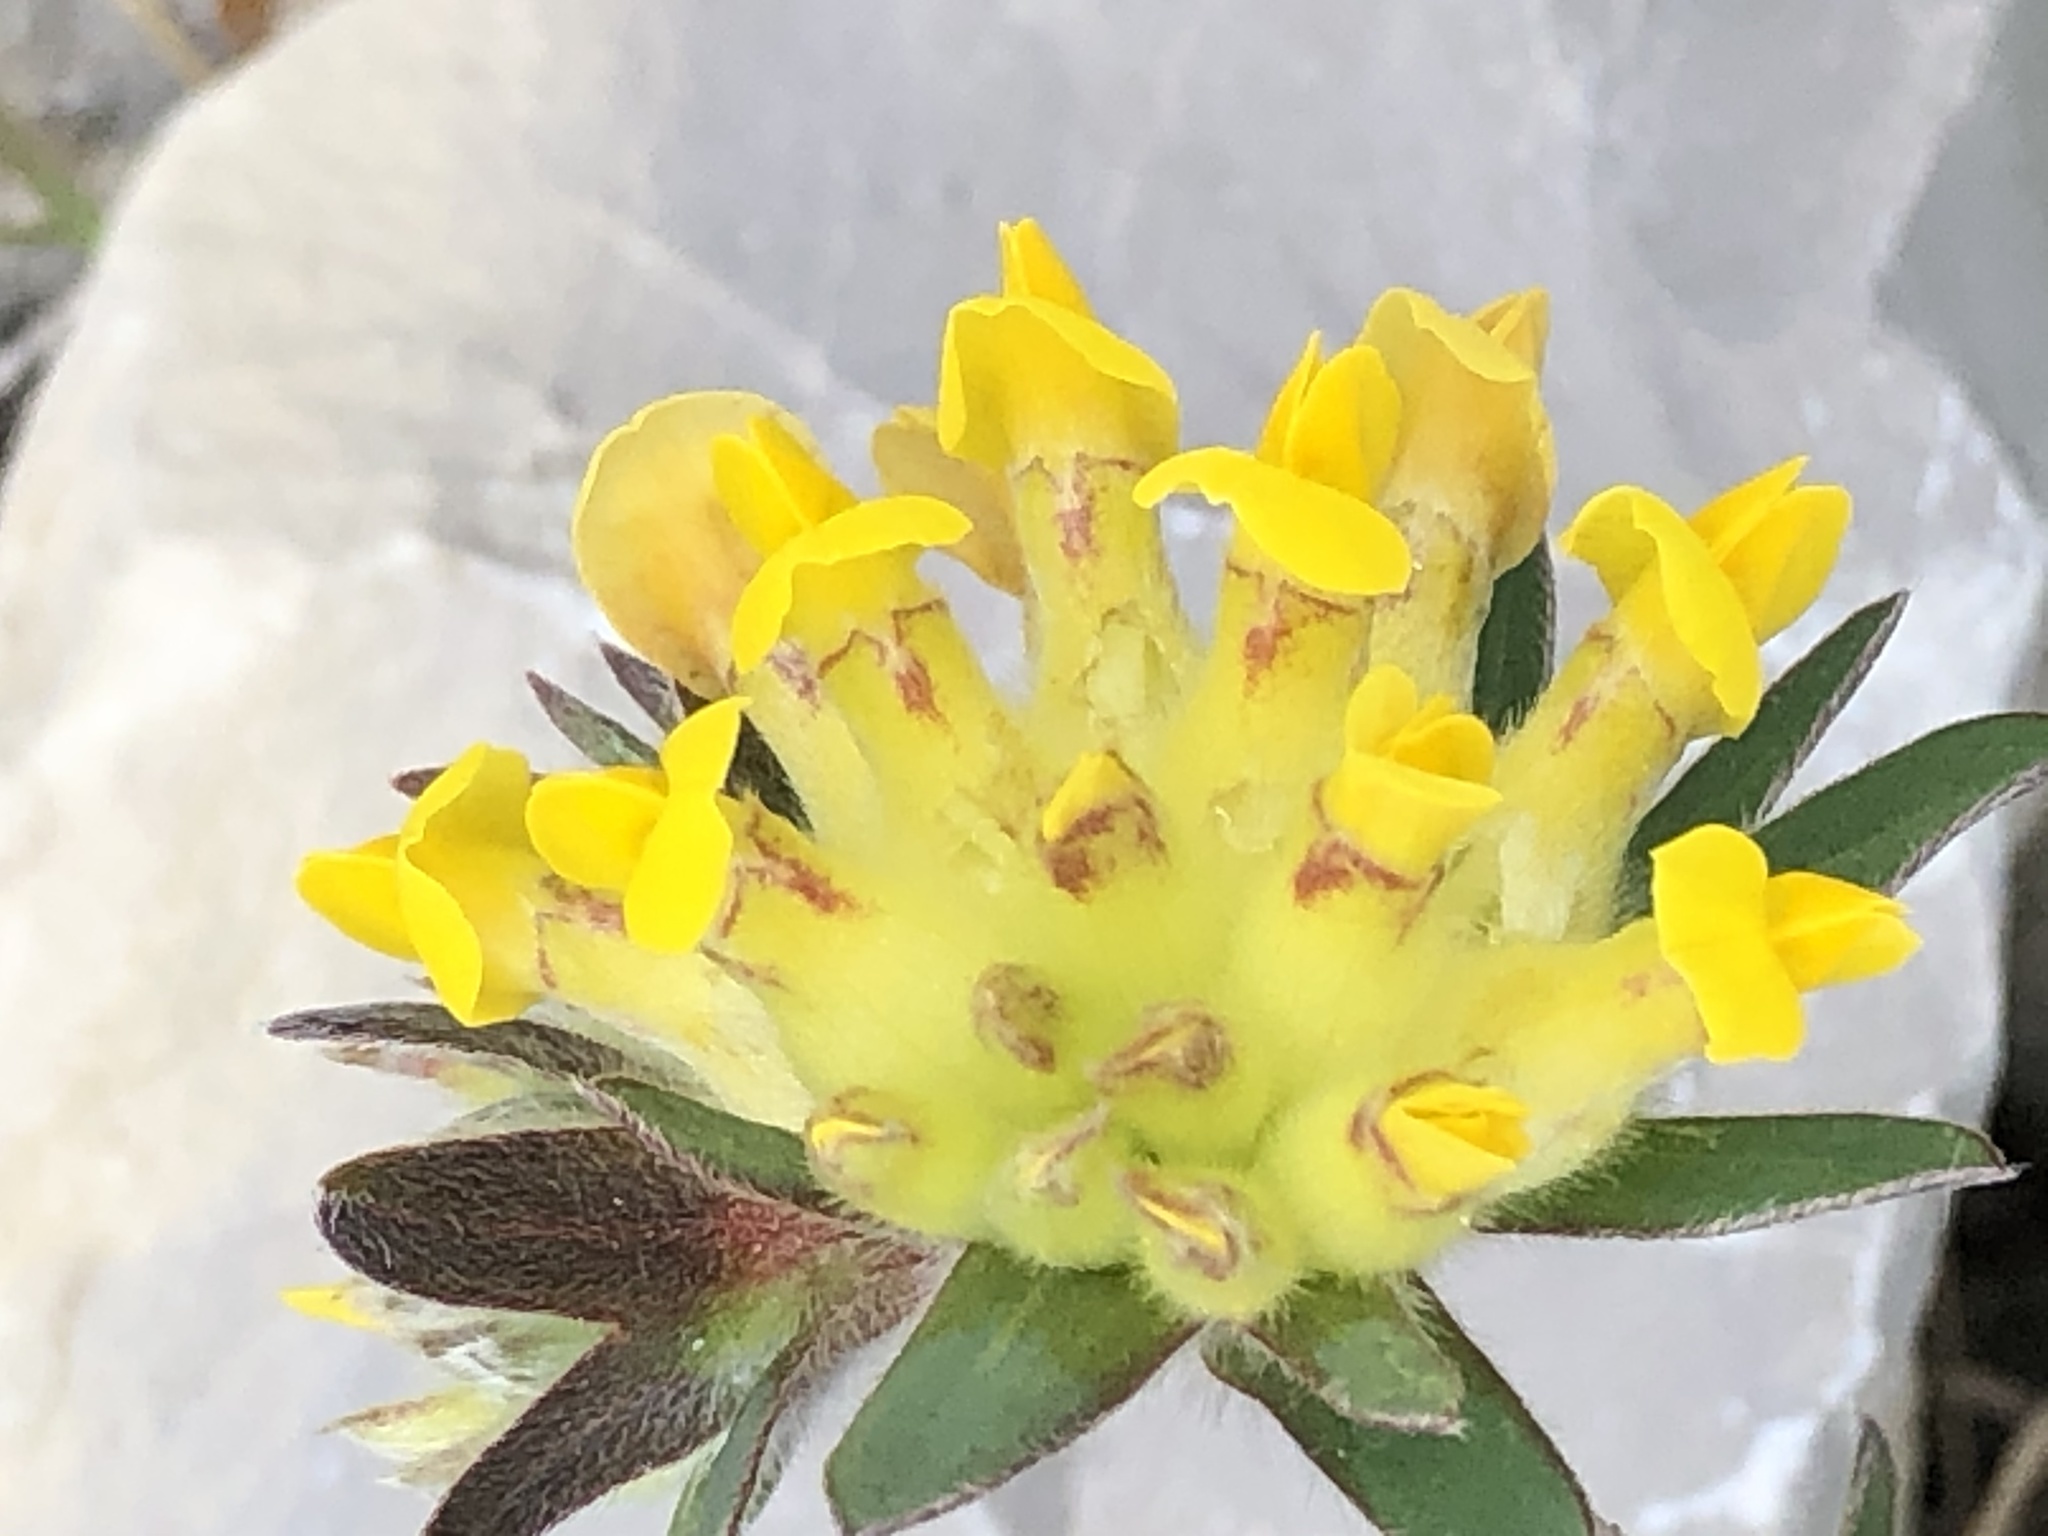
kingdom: Plantae
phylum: Tracheophyta
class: Magnoliopsida
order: Fabales
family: Fabaceae
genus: Anthyllis
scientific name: Anthyllis vulneraria
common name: Kidney vetch
